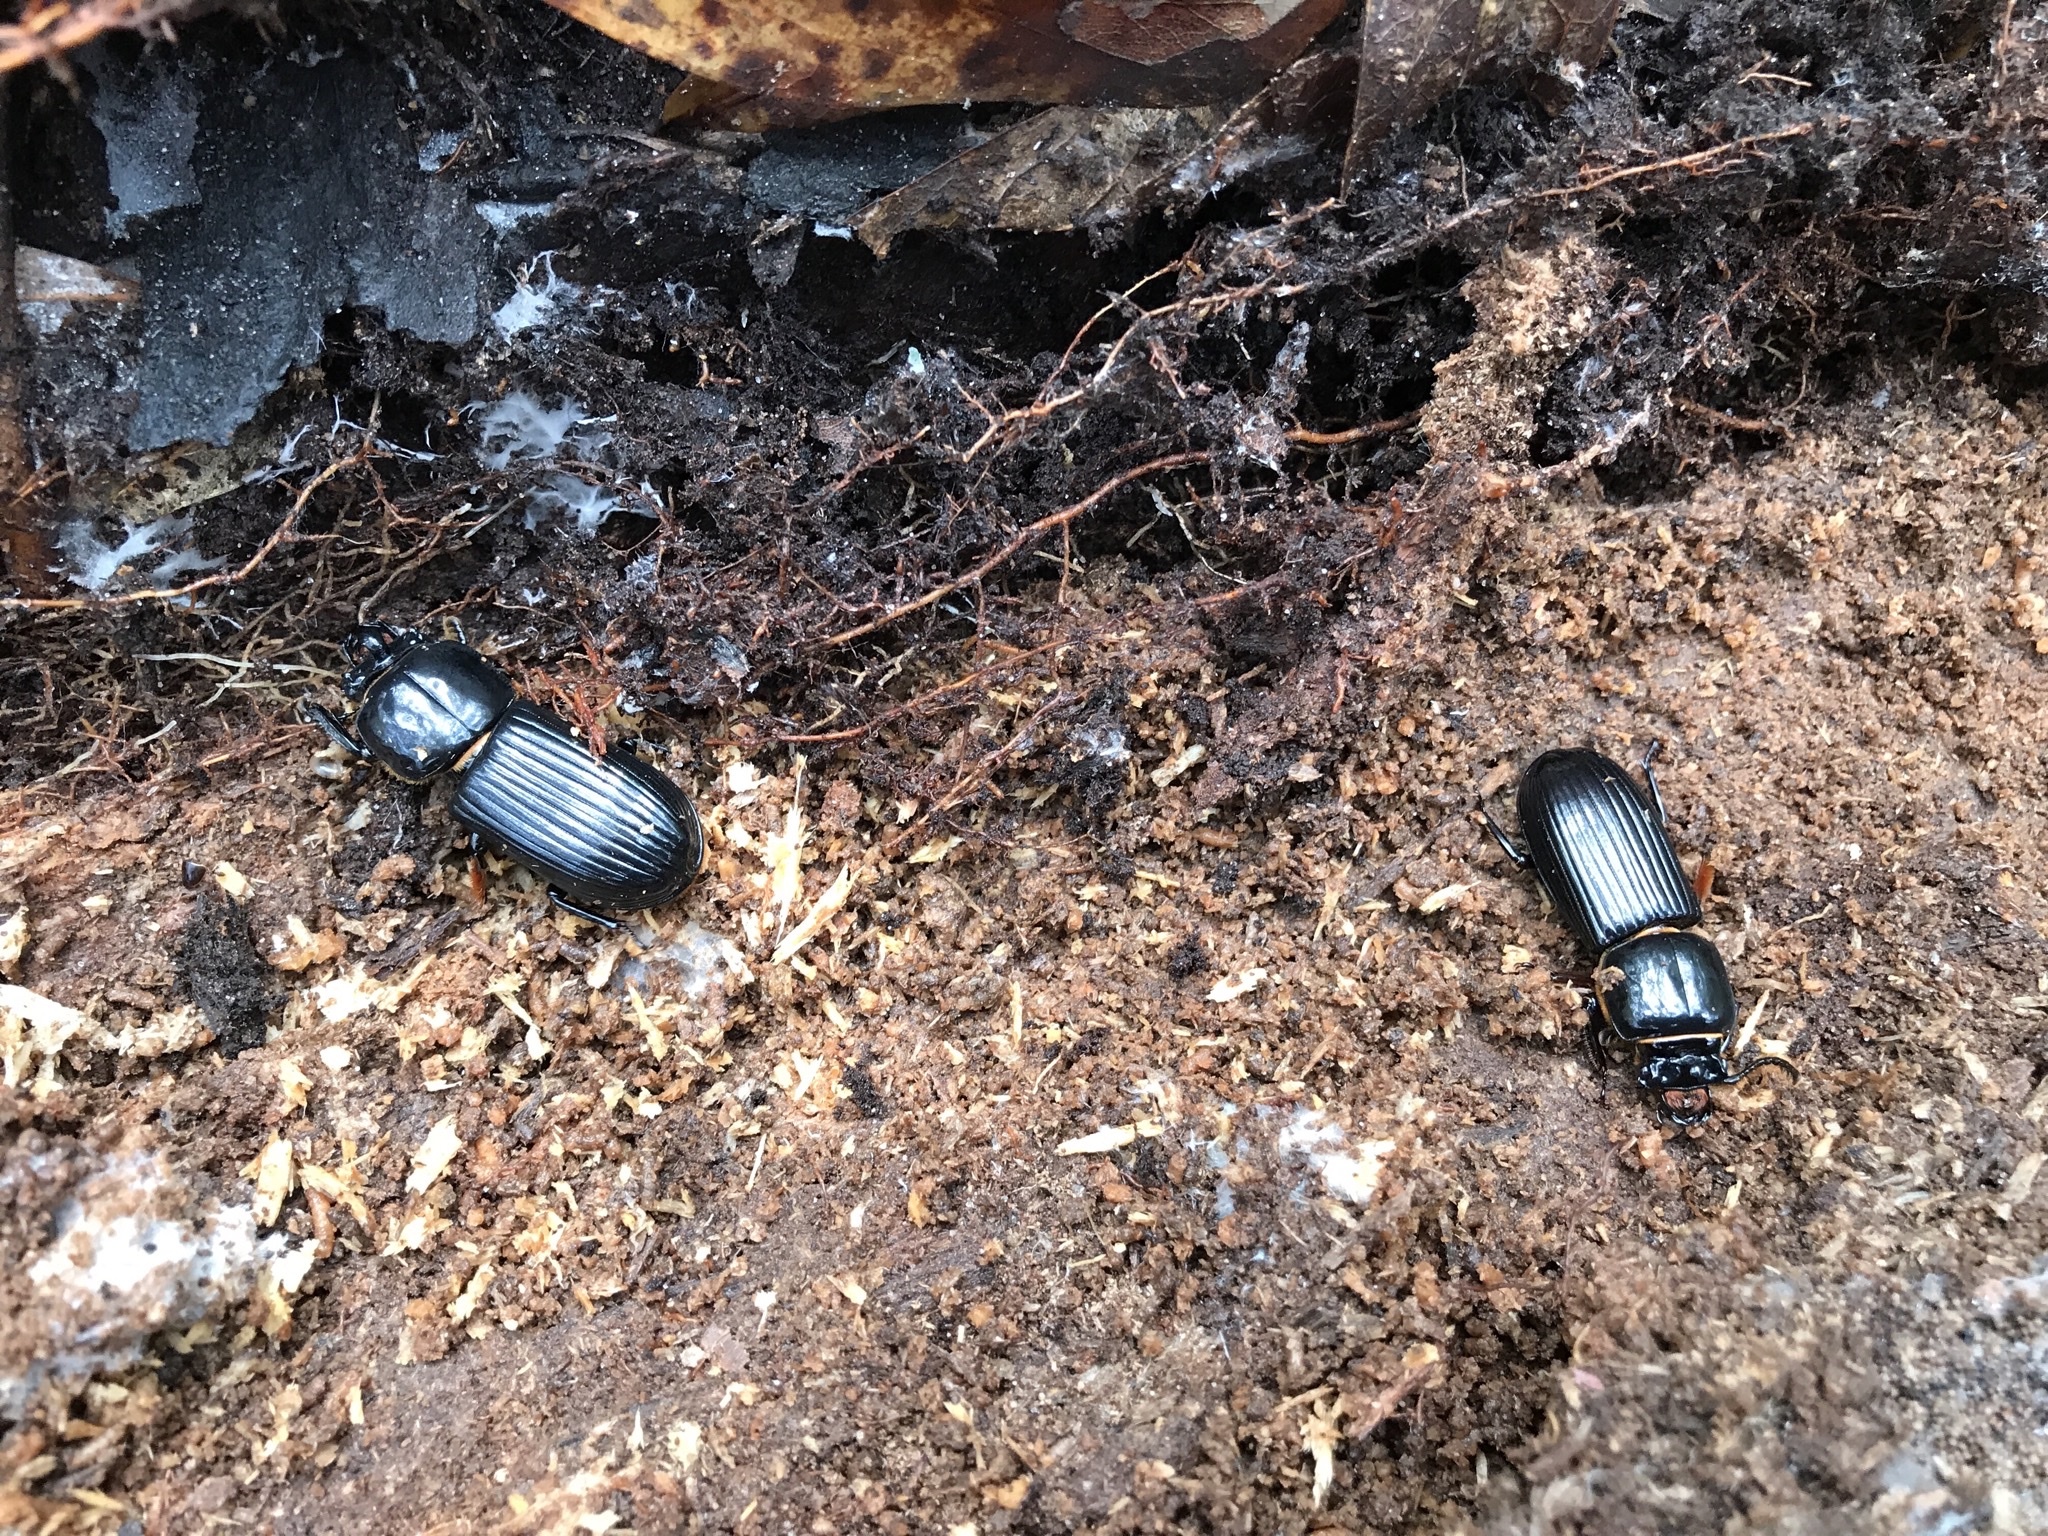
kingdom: Animalia
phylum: Arthropoda
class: Insecta
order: Coleoptera
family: Passalidae
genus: Odontotaenius
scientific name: Odontotaenius disjunctus
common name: Patent leather beetle
